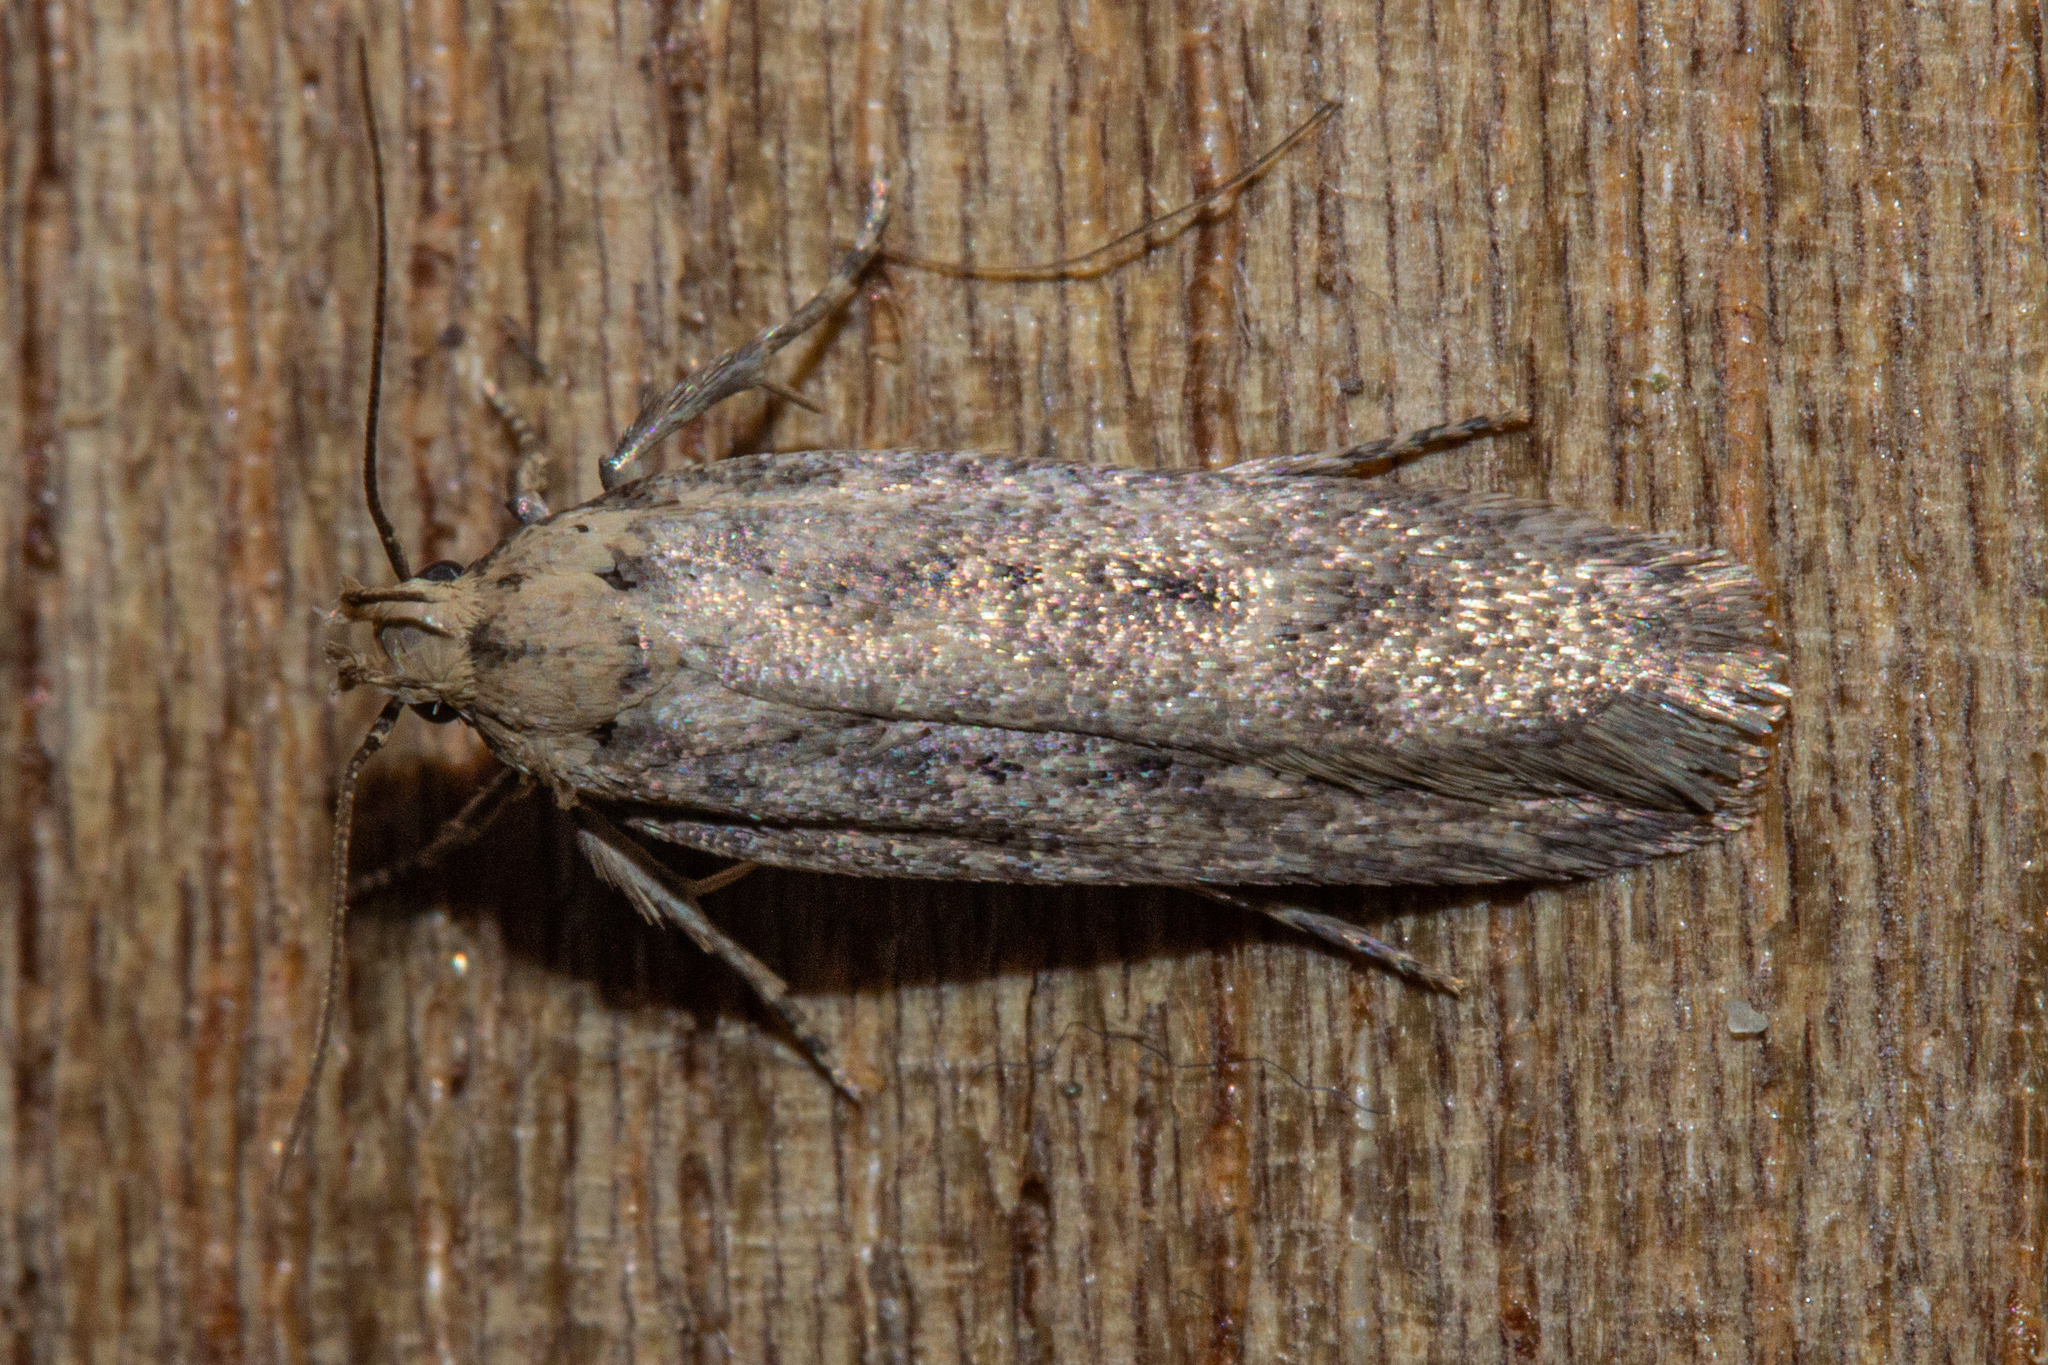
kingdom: Animalia
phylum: Arthropoda
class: Insecta
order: Lepidoptera
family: Gelechiidae
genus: Platyedra
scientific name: Platyedra subcinerea
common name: Moth
